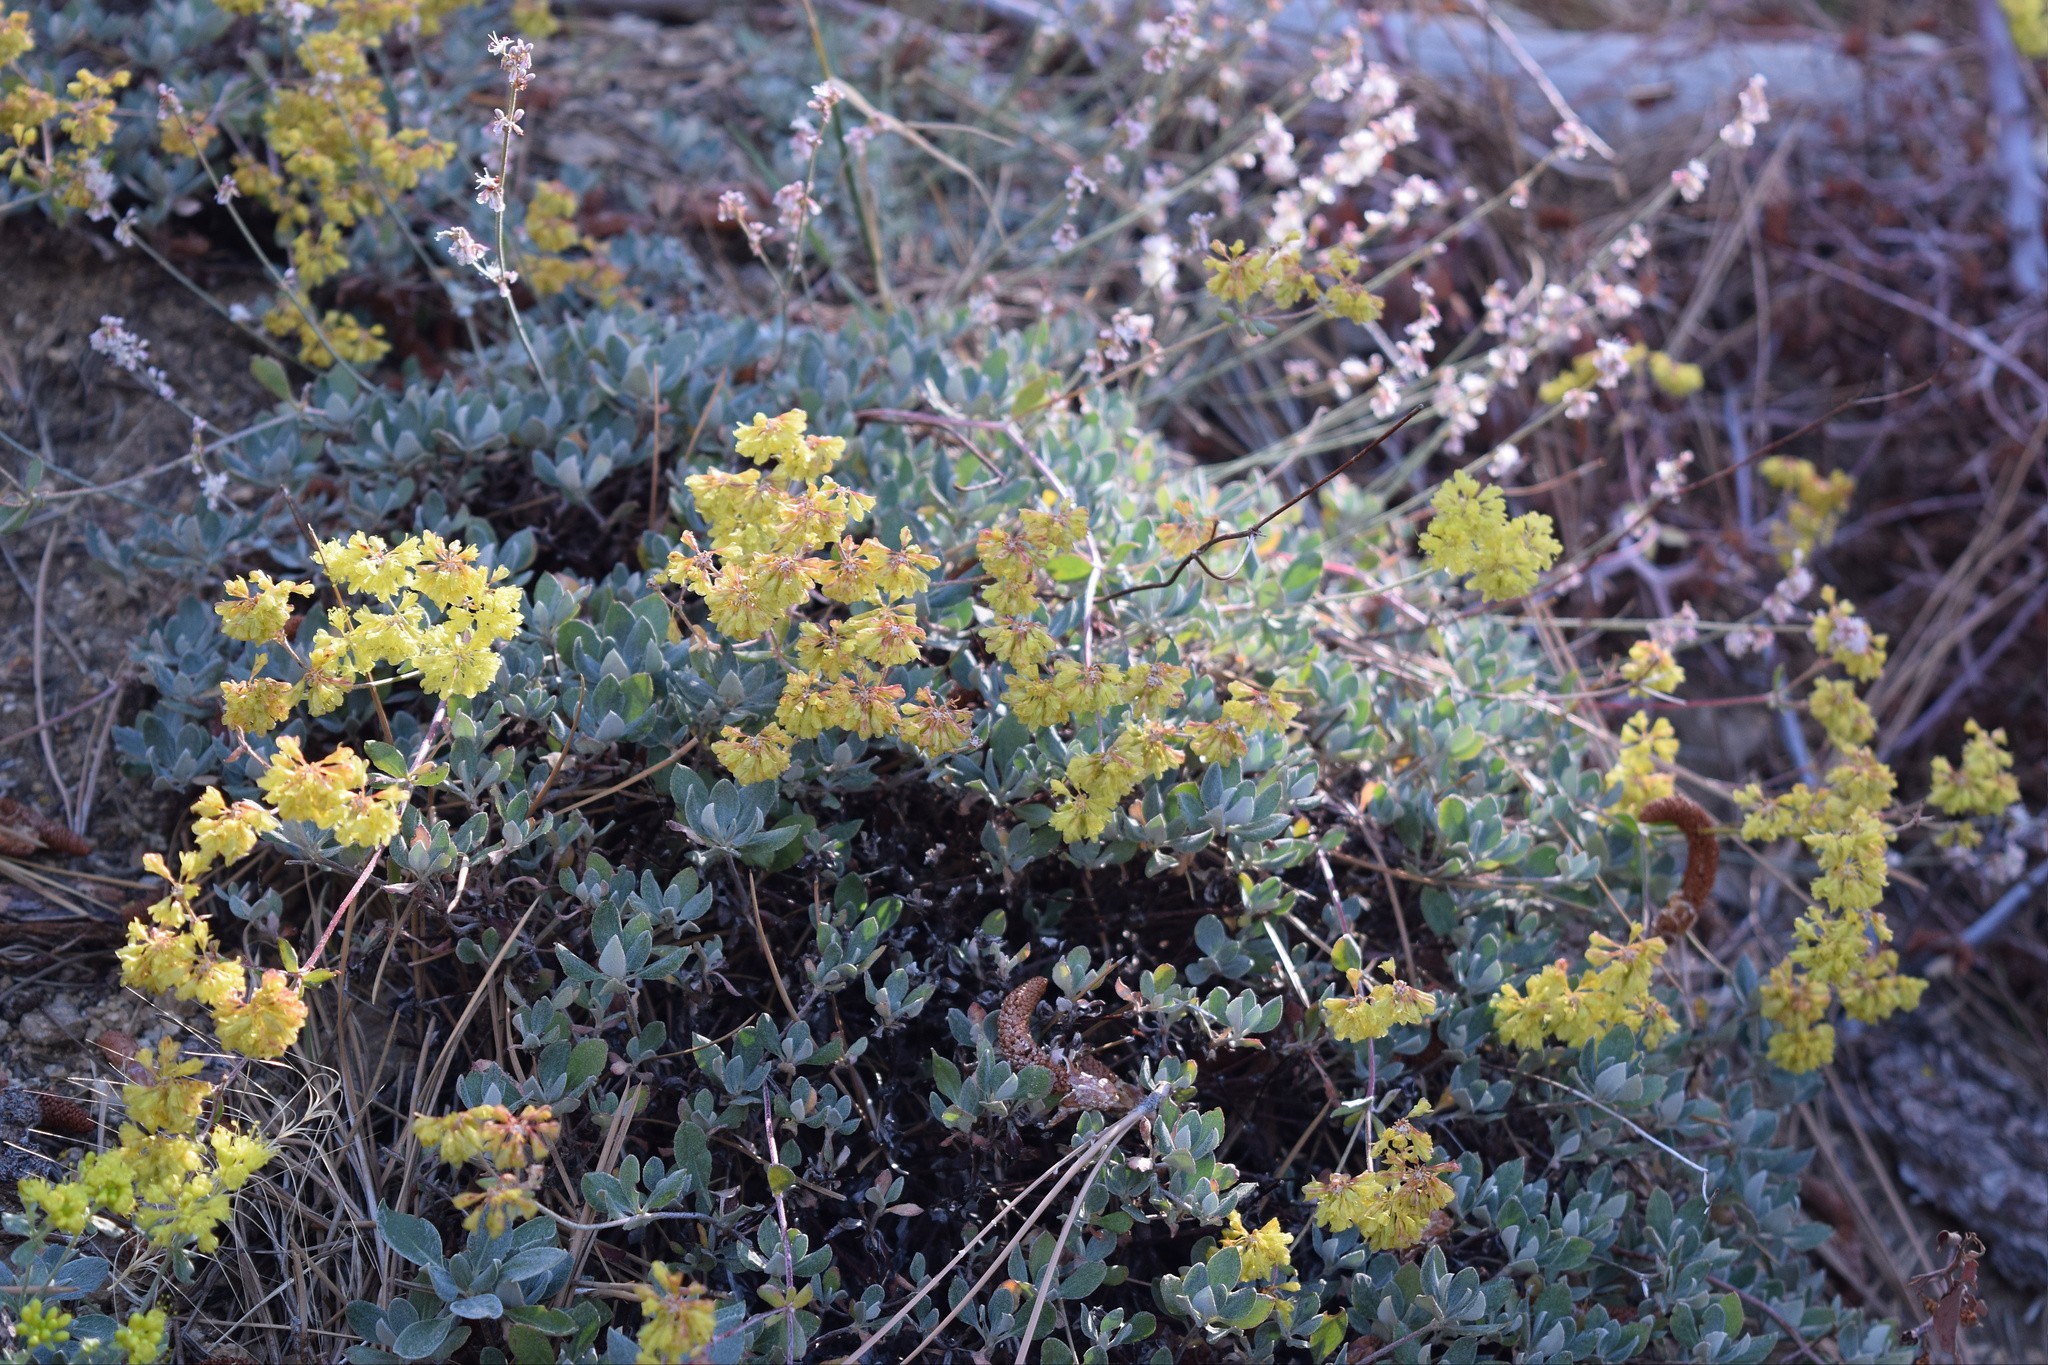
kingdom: Plantae
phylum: Tracheophyta
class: Magnoliopsida
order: Caryophyllales
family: Polygonaceae
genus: Eriogonum
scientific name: Eriogonum umbellatum
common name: Sulfur-buckwheat
